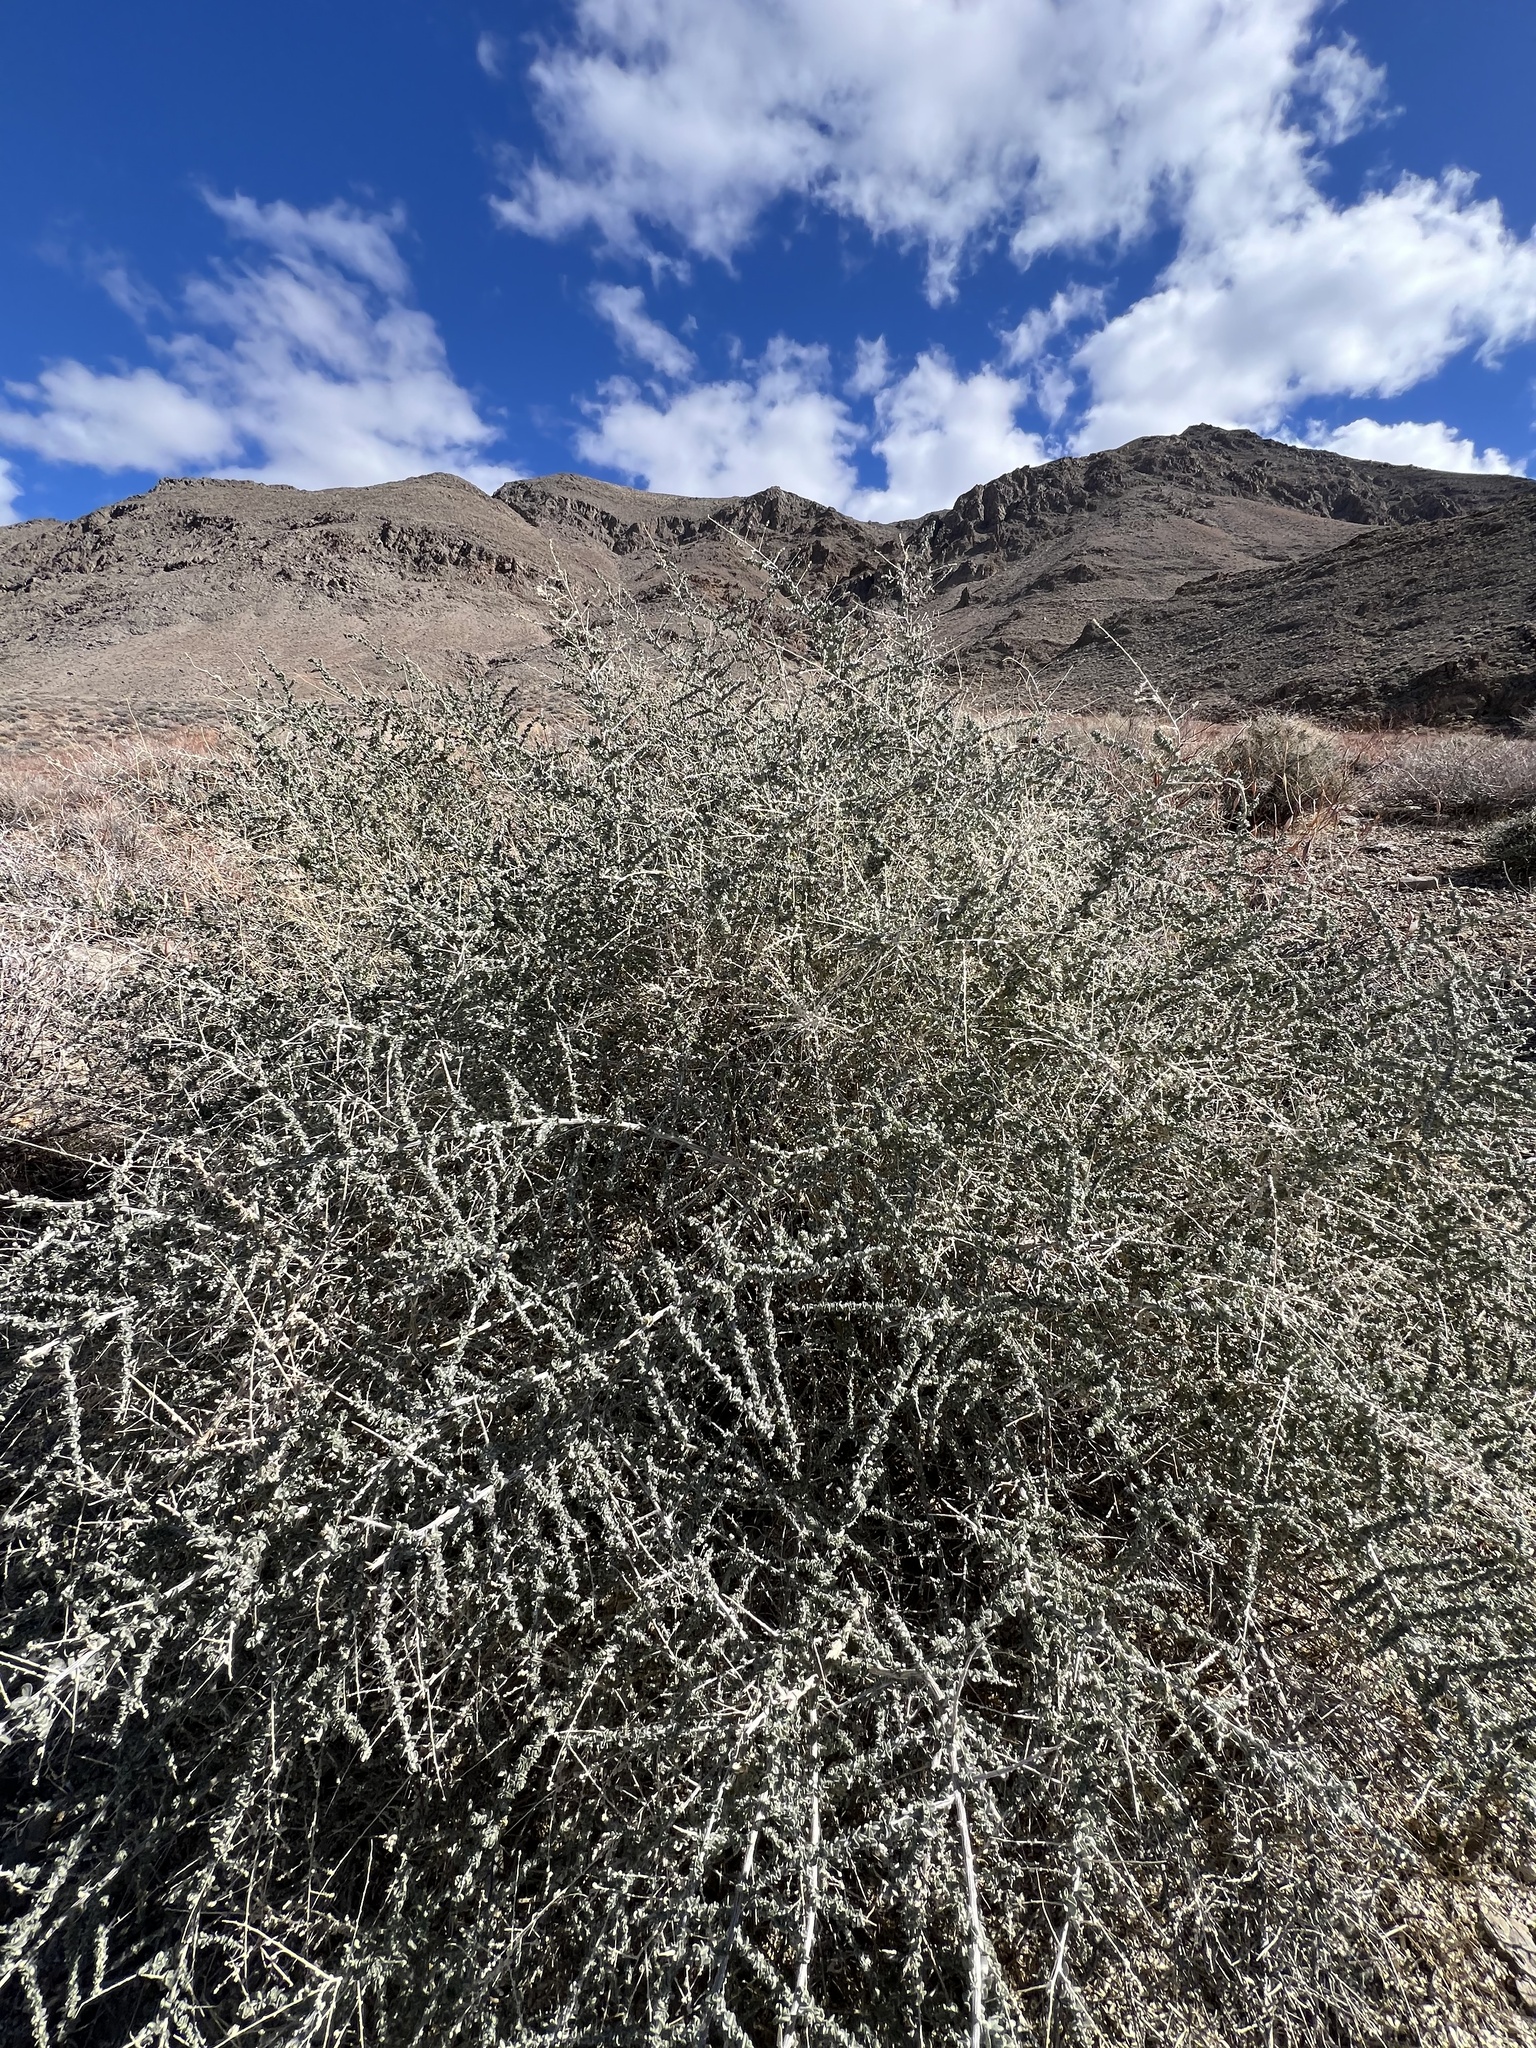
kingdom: Plantae
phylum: Tracheophyta
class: Magnoliopsida
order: Caryophyllales
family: Amaranthaceae
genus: Atriplex
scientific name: Atriplex polycarpa
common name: Desert saltbush
